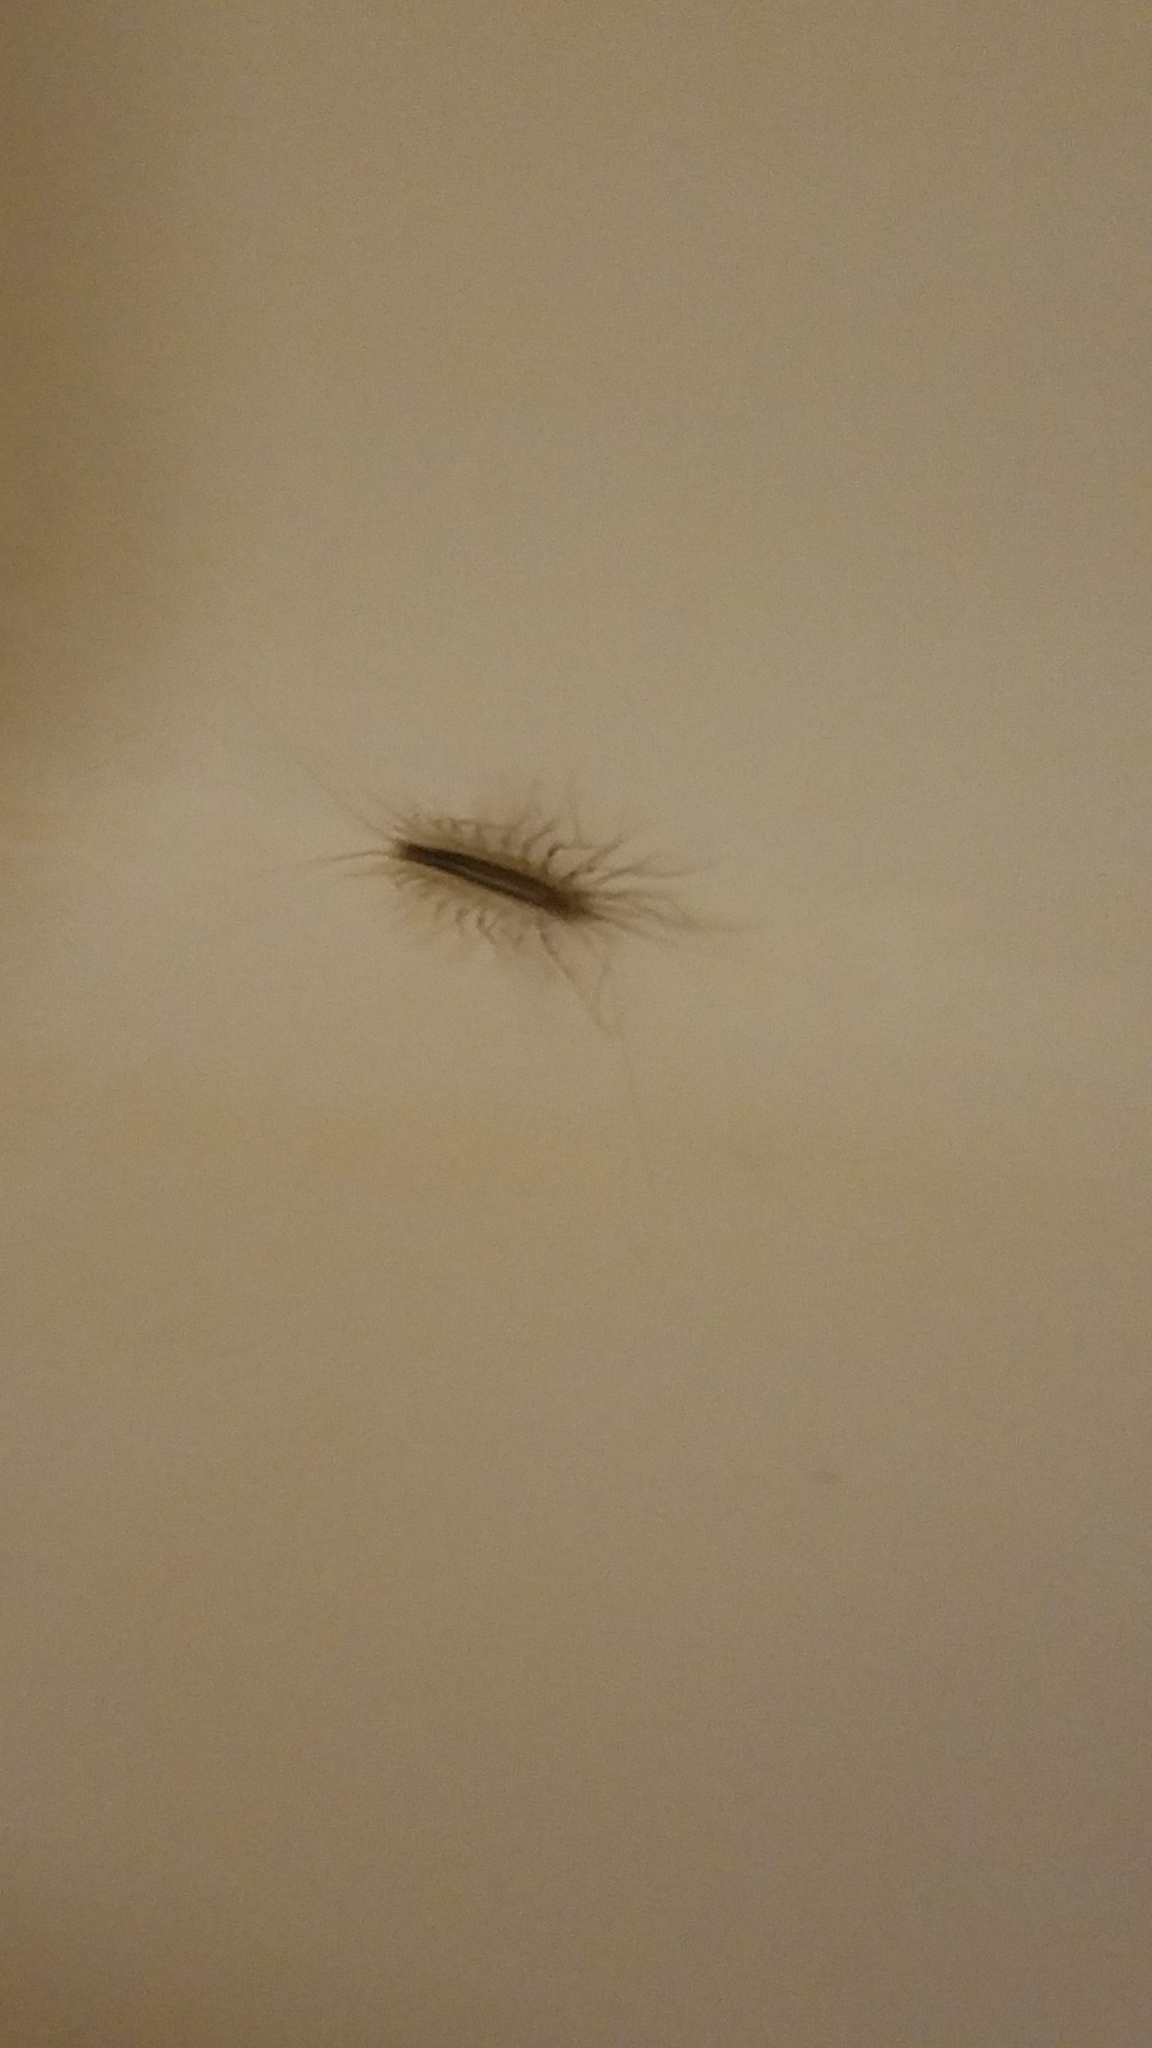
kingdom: Animalia
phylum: Arthropoda
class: Chilopoda
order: Scutigeromorpha
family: Scutigeridae
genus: Scutigera
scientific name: Scutigera coleoptrata
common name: House centipede
